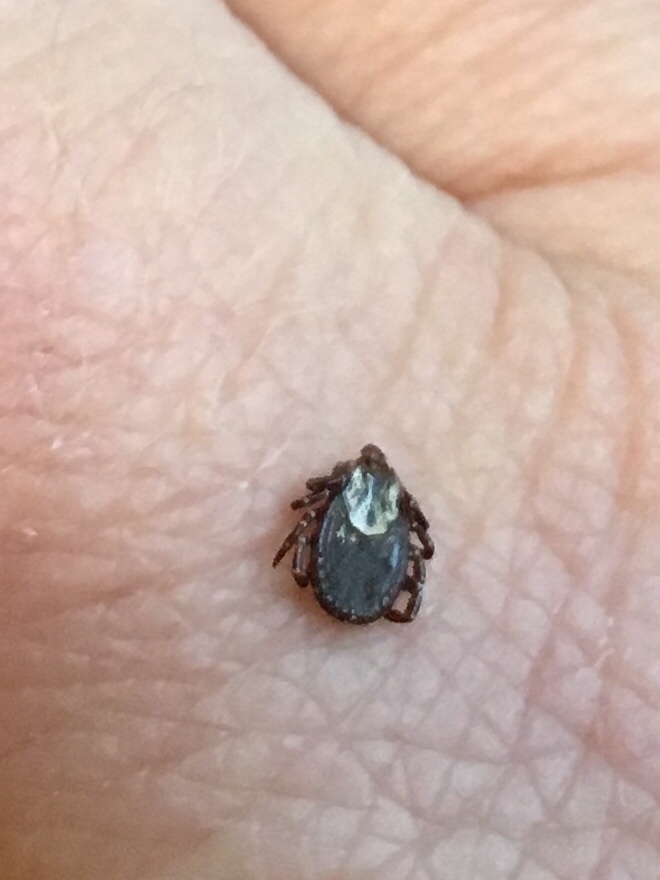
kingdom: Animalia
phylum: Arthropoda
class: Arachnida
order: Ixodida
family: Ixodidae
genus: Dermacentor
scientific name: Dermacentor variabilis
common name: American dog tick
